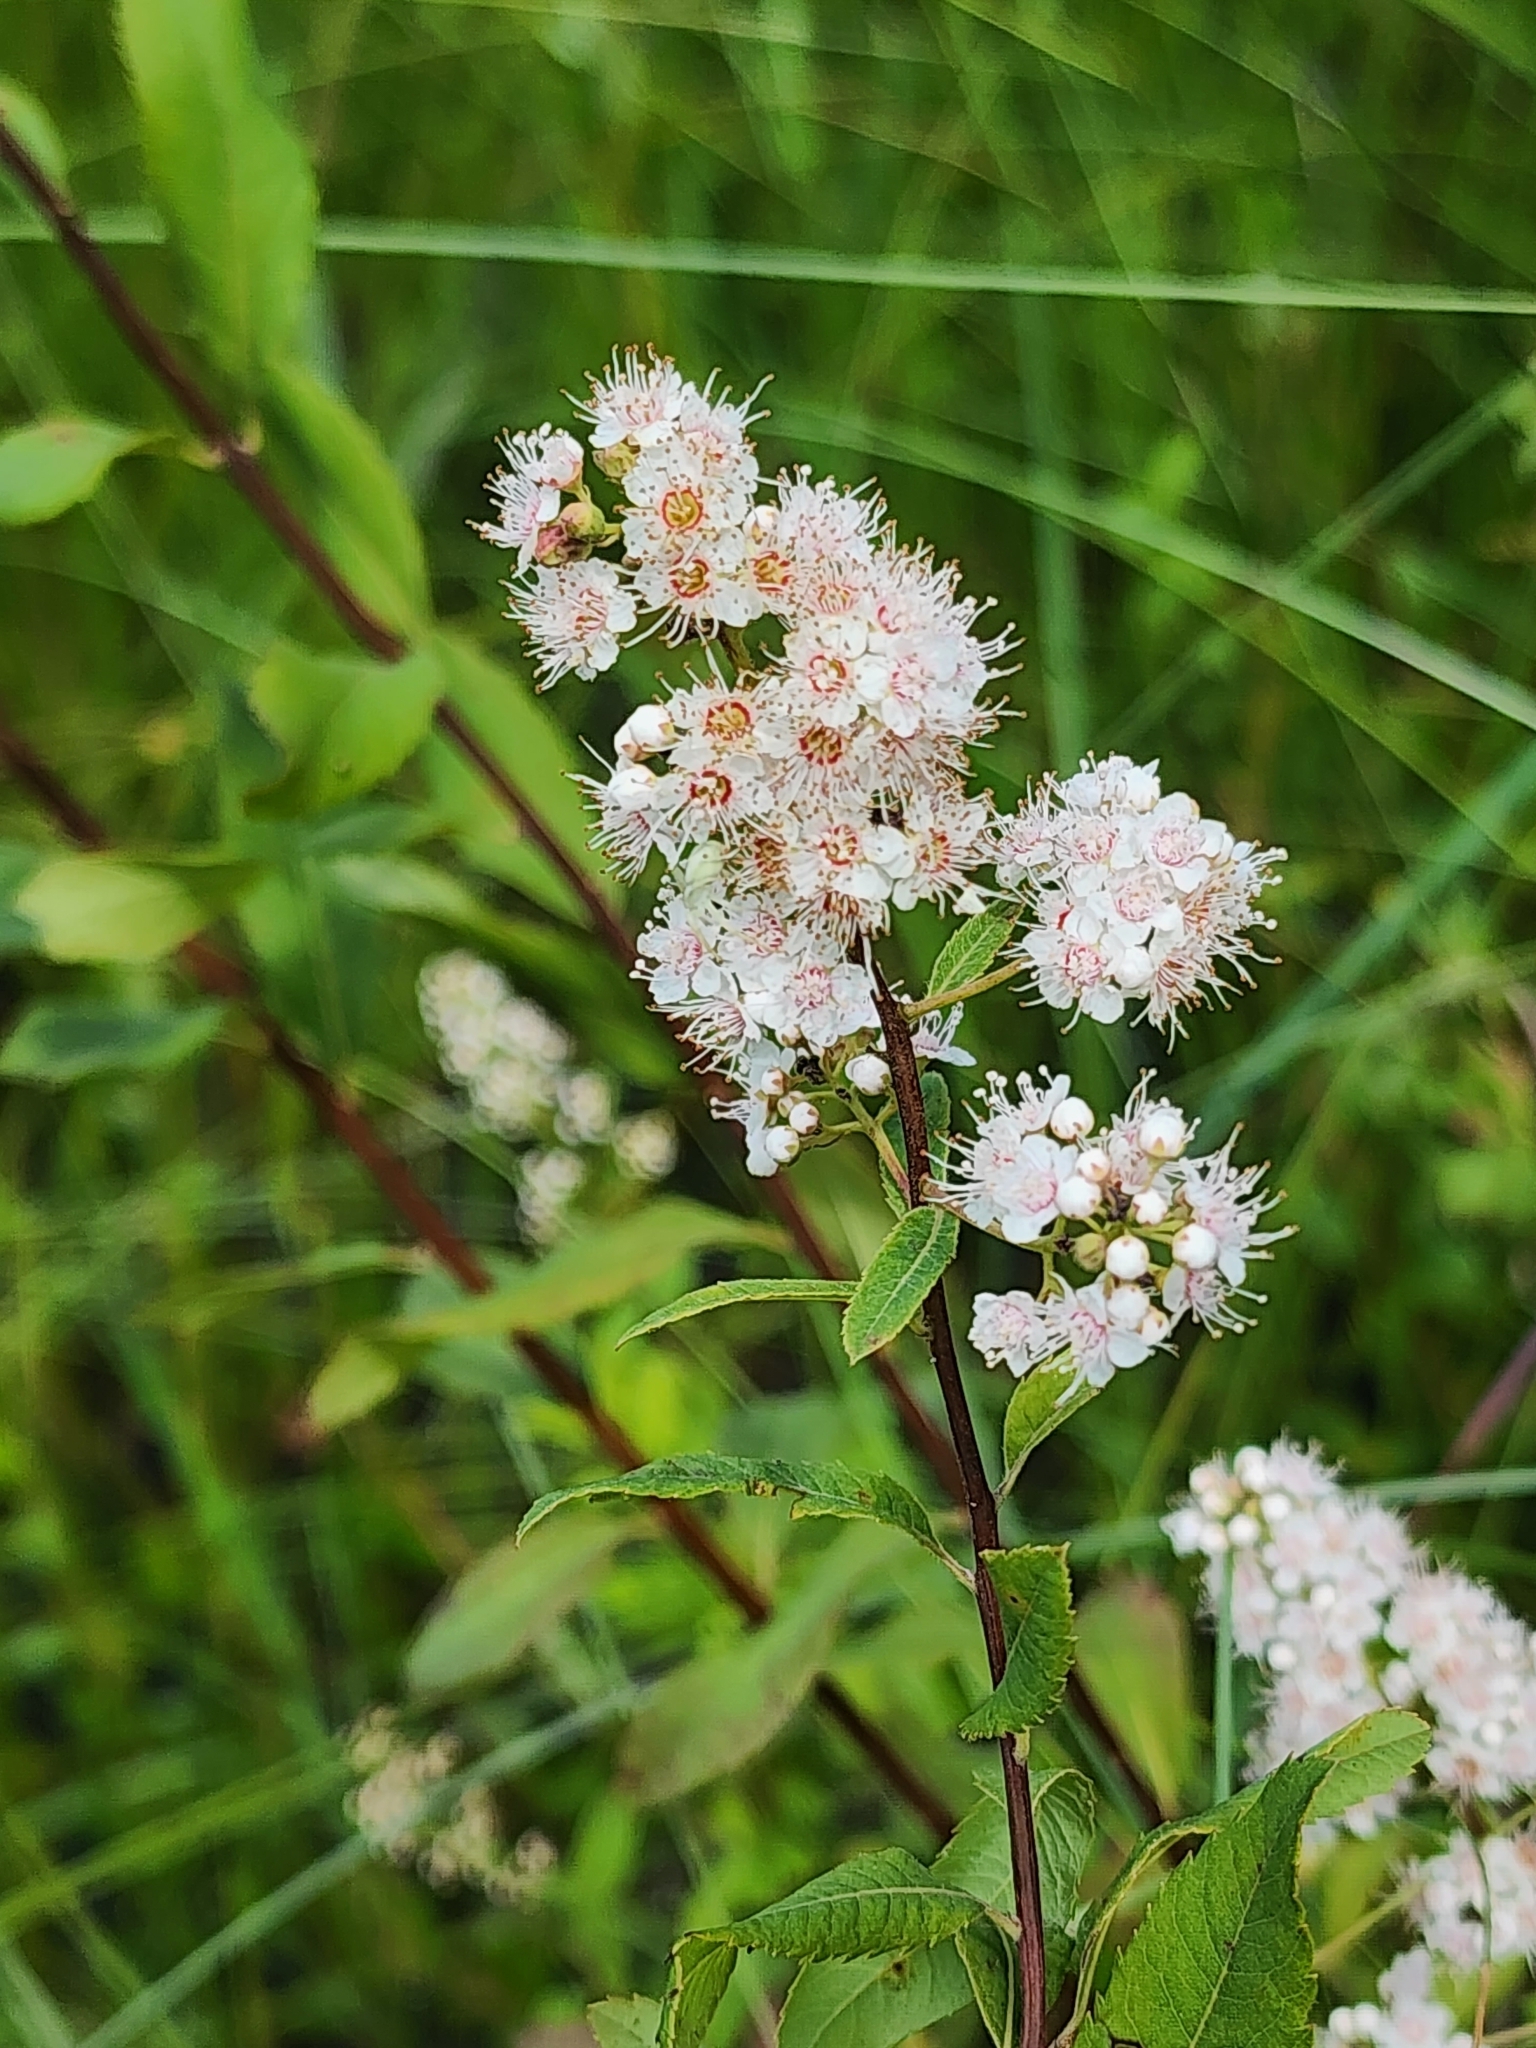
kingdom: Plantae
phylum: Tracheophyta
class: Magnoliopsida
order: Rosales
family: Rosaceae
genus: Spiraea
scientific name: Spiraea alba
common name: Pale bridewort
